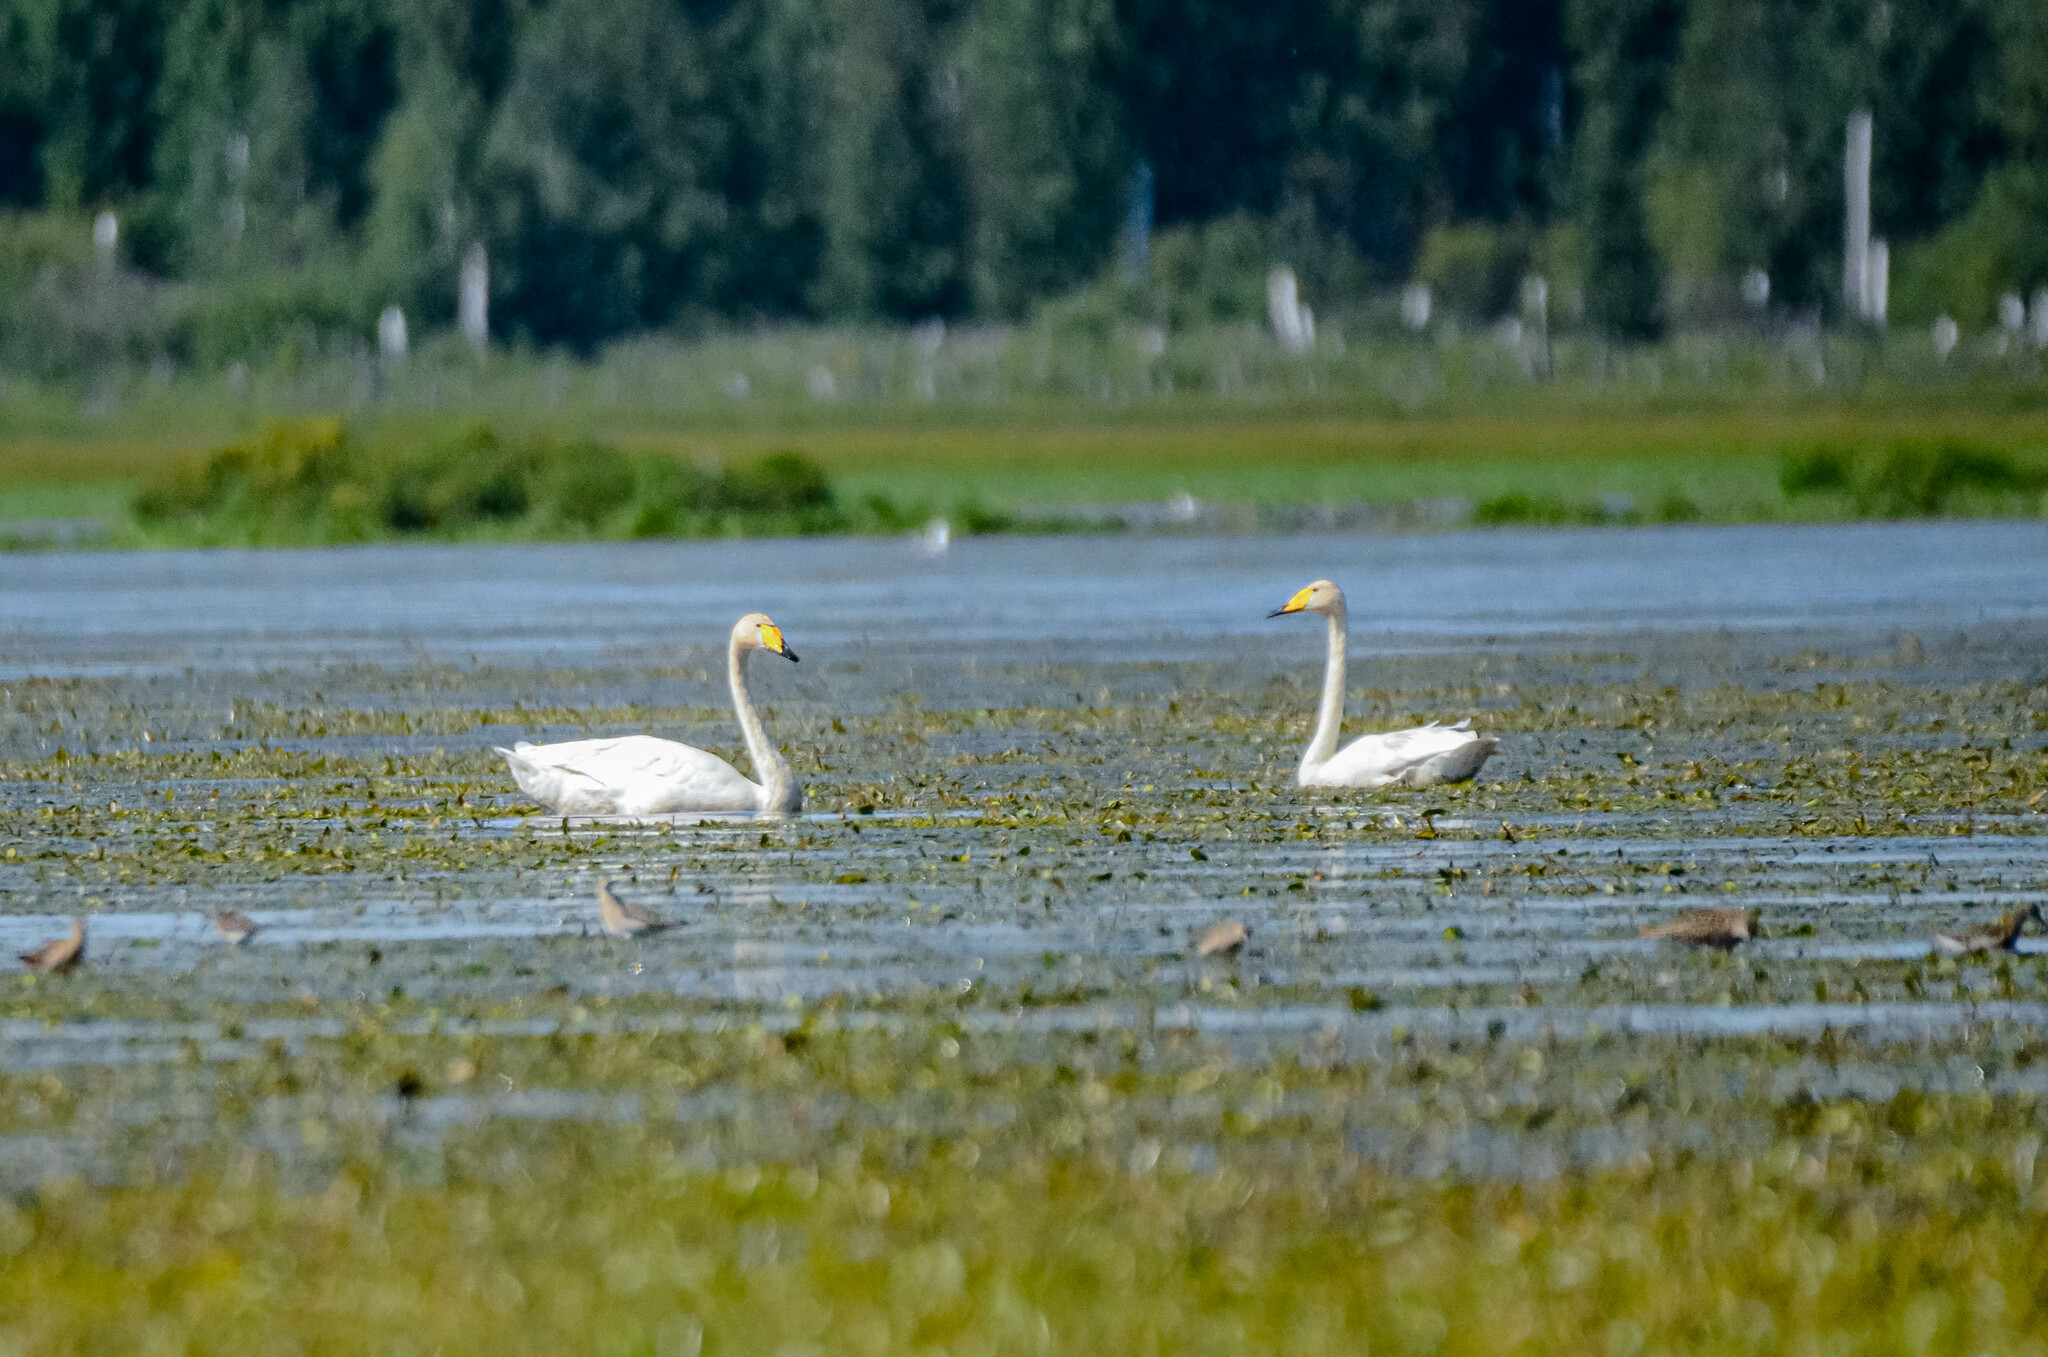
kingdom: Animalia
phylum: Chordata
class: Aves
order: Anseriformes
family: Anatidae
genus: Cygnus
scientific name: Cygnus cygnus
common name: Whooper swan
